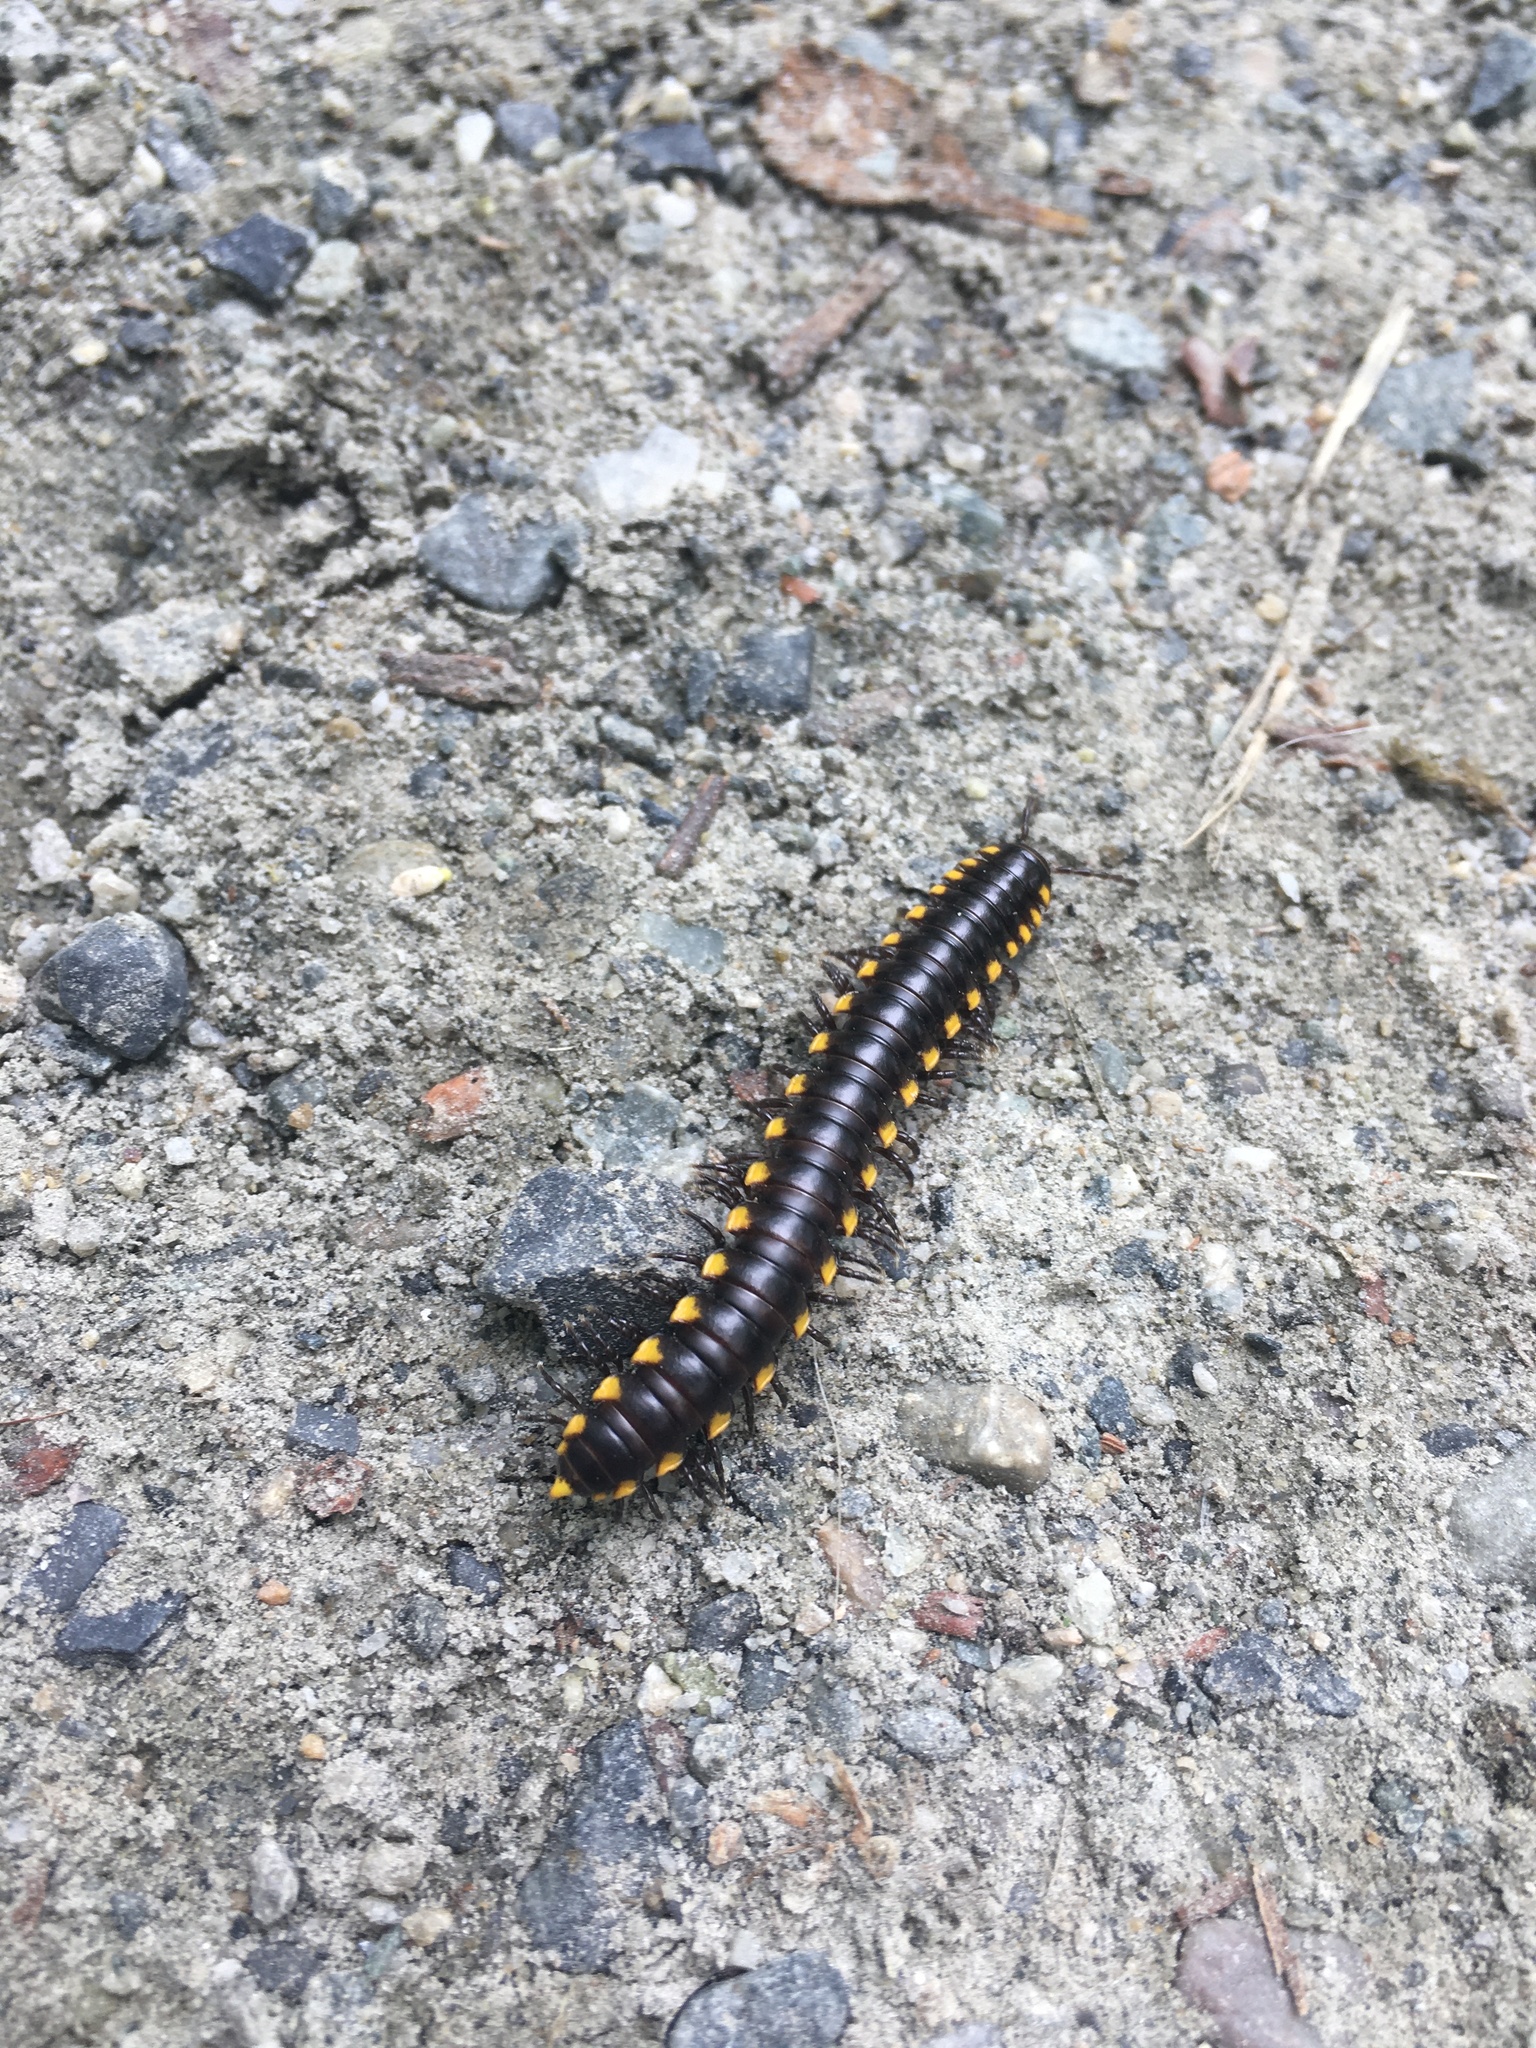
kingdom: Animalia
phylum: Arthropoda
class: Diplopoda
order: Polydesmida
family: Xystodesmidae
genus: Harpaphe
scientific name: Harpaphe haydeniana
